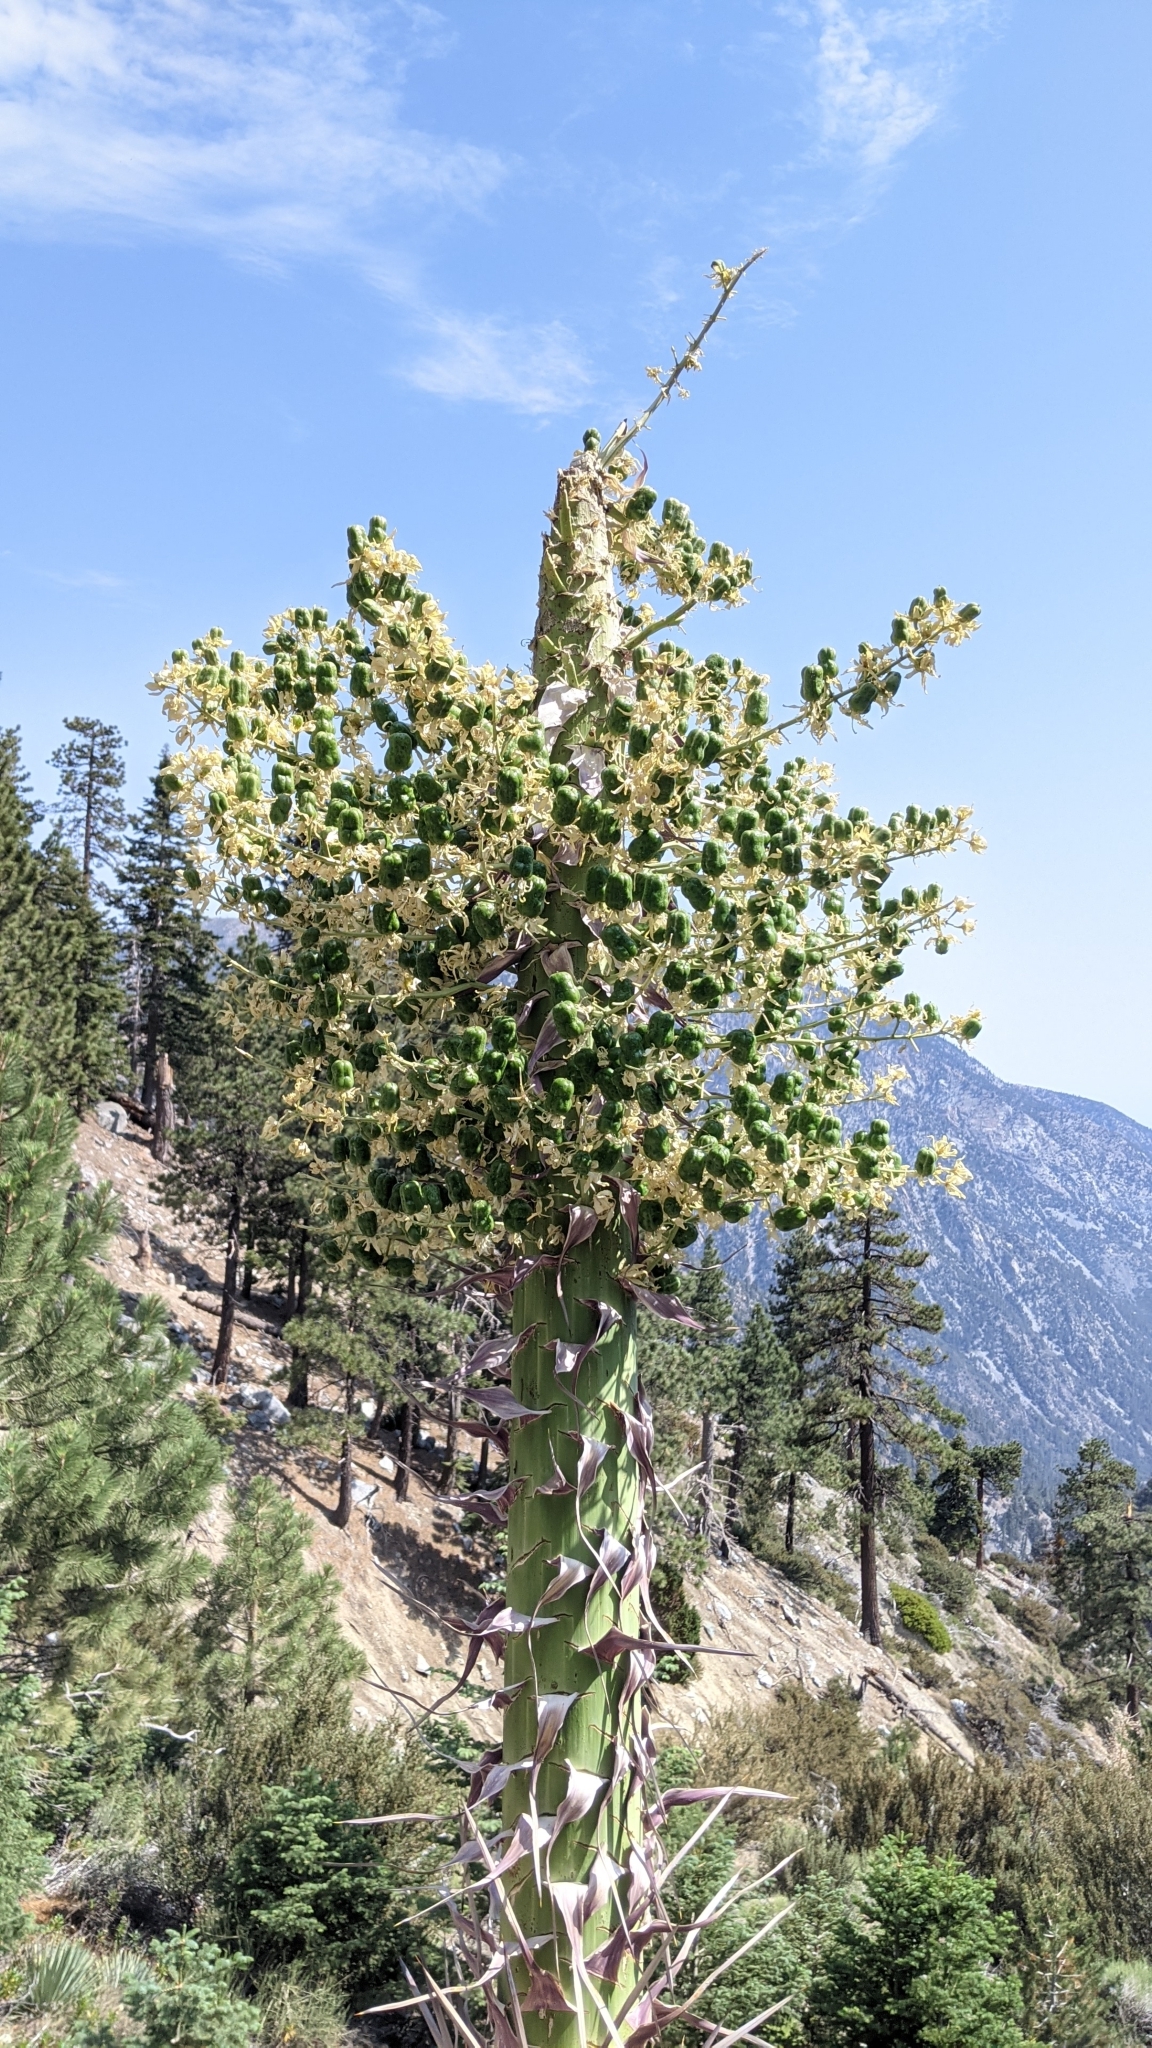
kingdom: Plantae
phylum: Tracheophyta
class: Liliopsida
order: Asparagales
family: Asparagaceae
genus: Hesperoyucca
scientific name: Hesperoyucca whipplei
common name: Our lord's-candle
